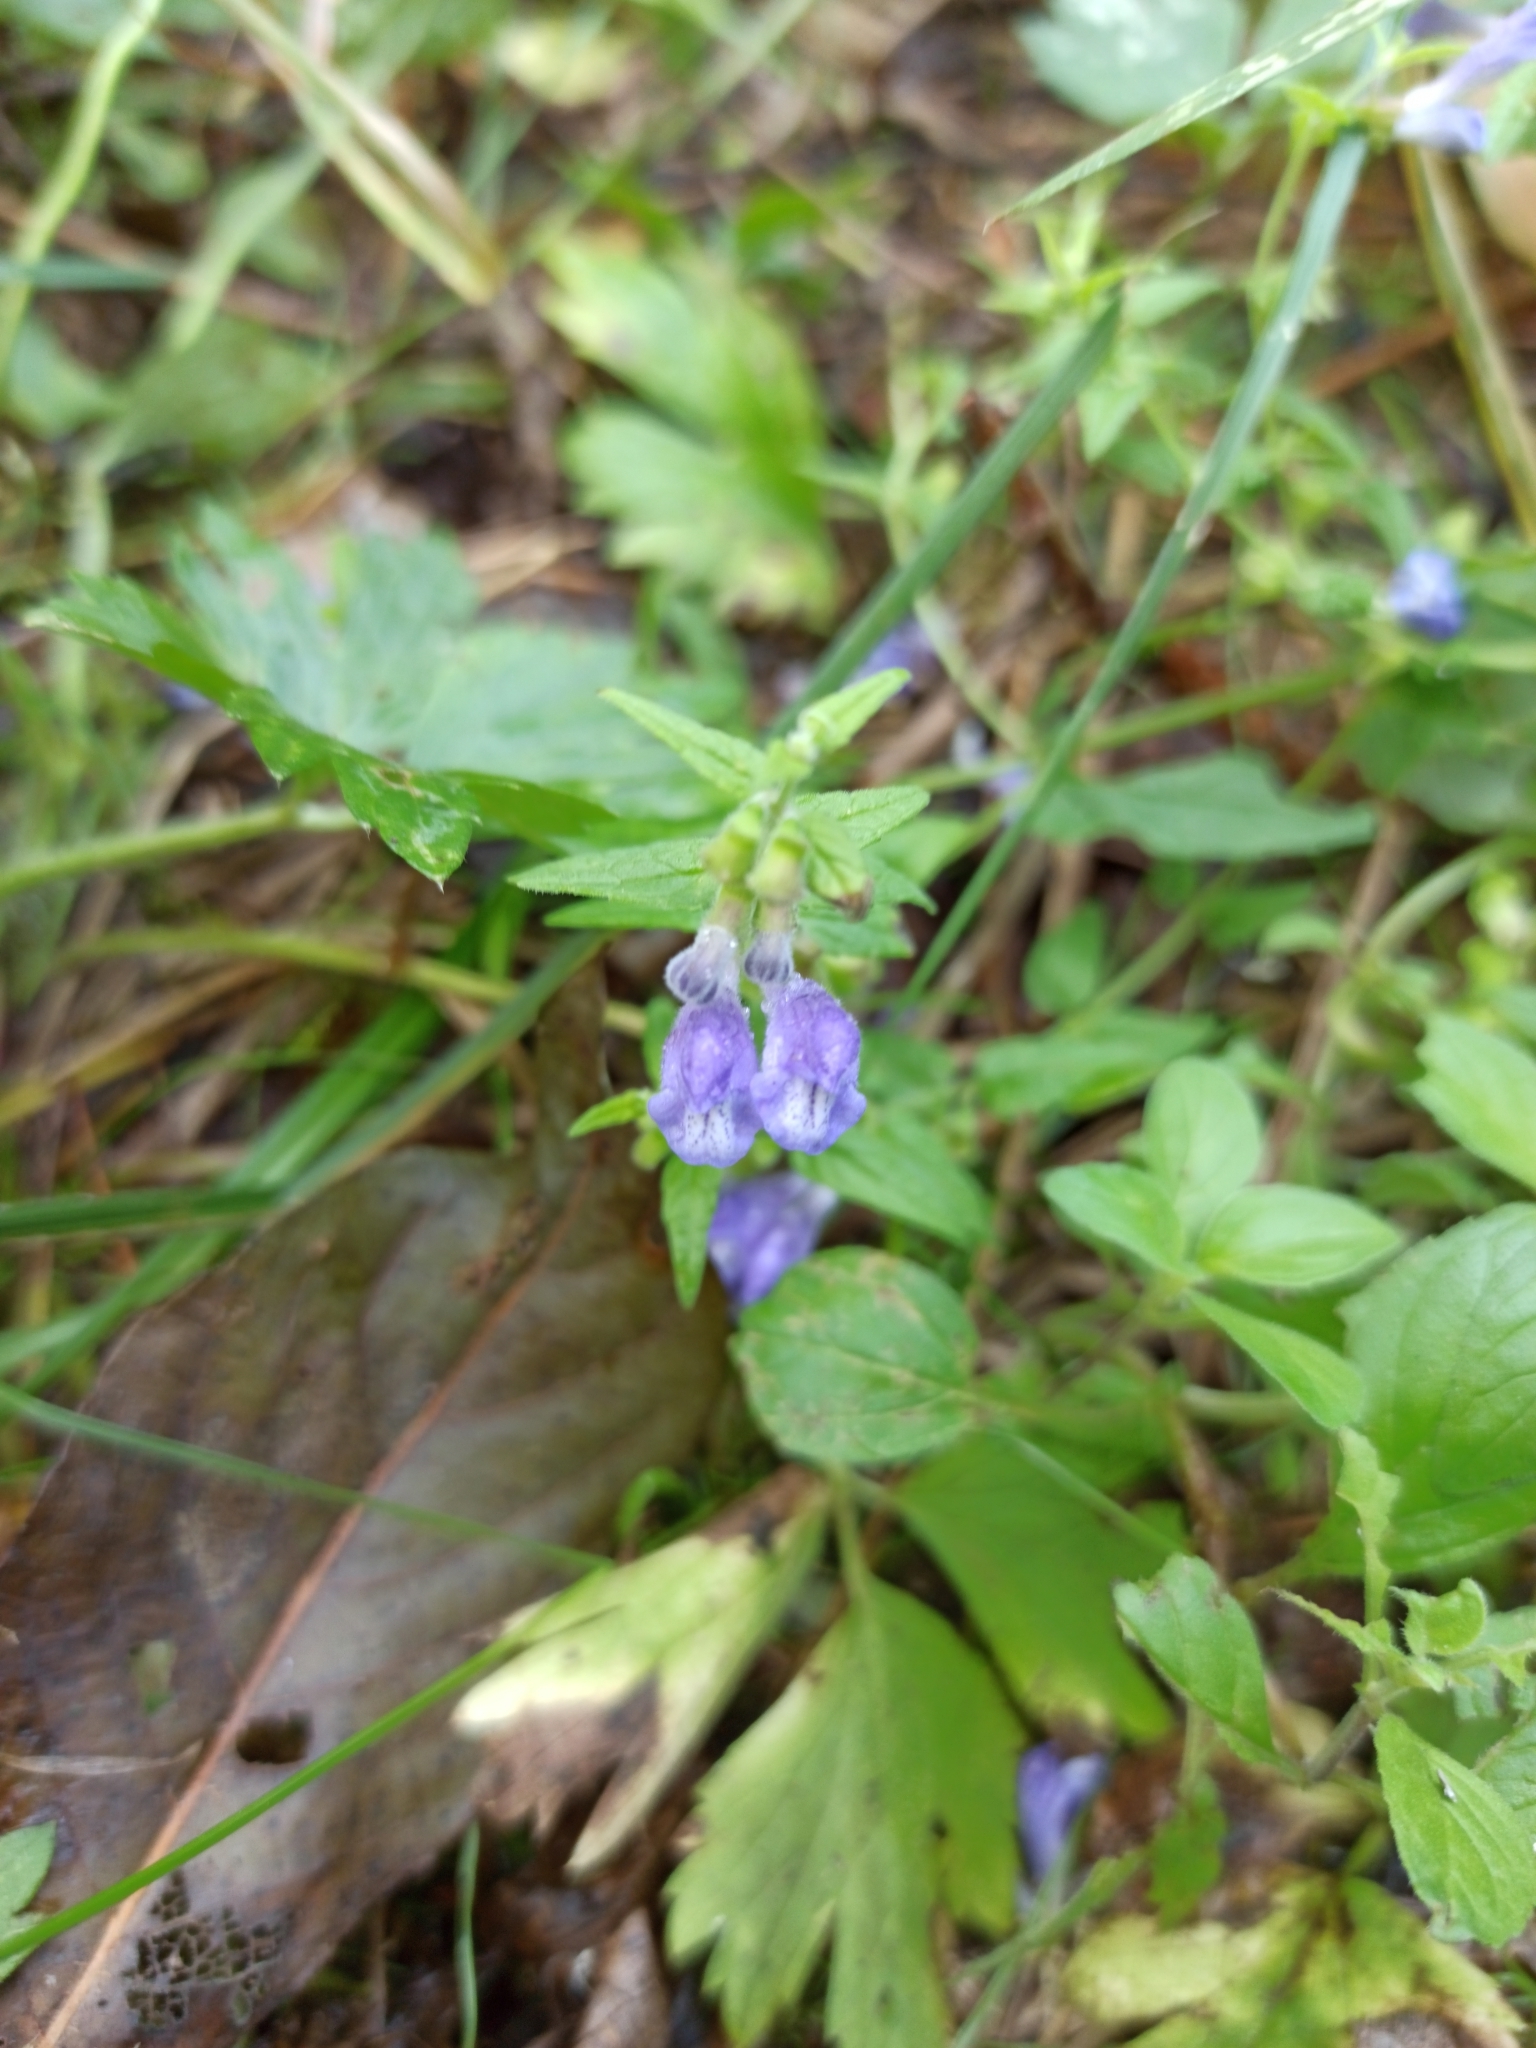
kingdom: Plantae
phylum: Tracheophyta
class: Magnoliopsida
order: Lamiales
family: Lamiaceae
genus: Scutellaria
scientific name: Scutellaria galericulata
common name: Skullcap
